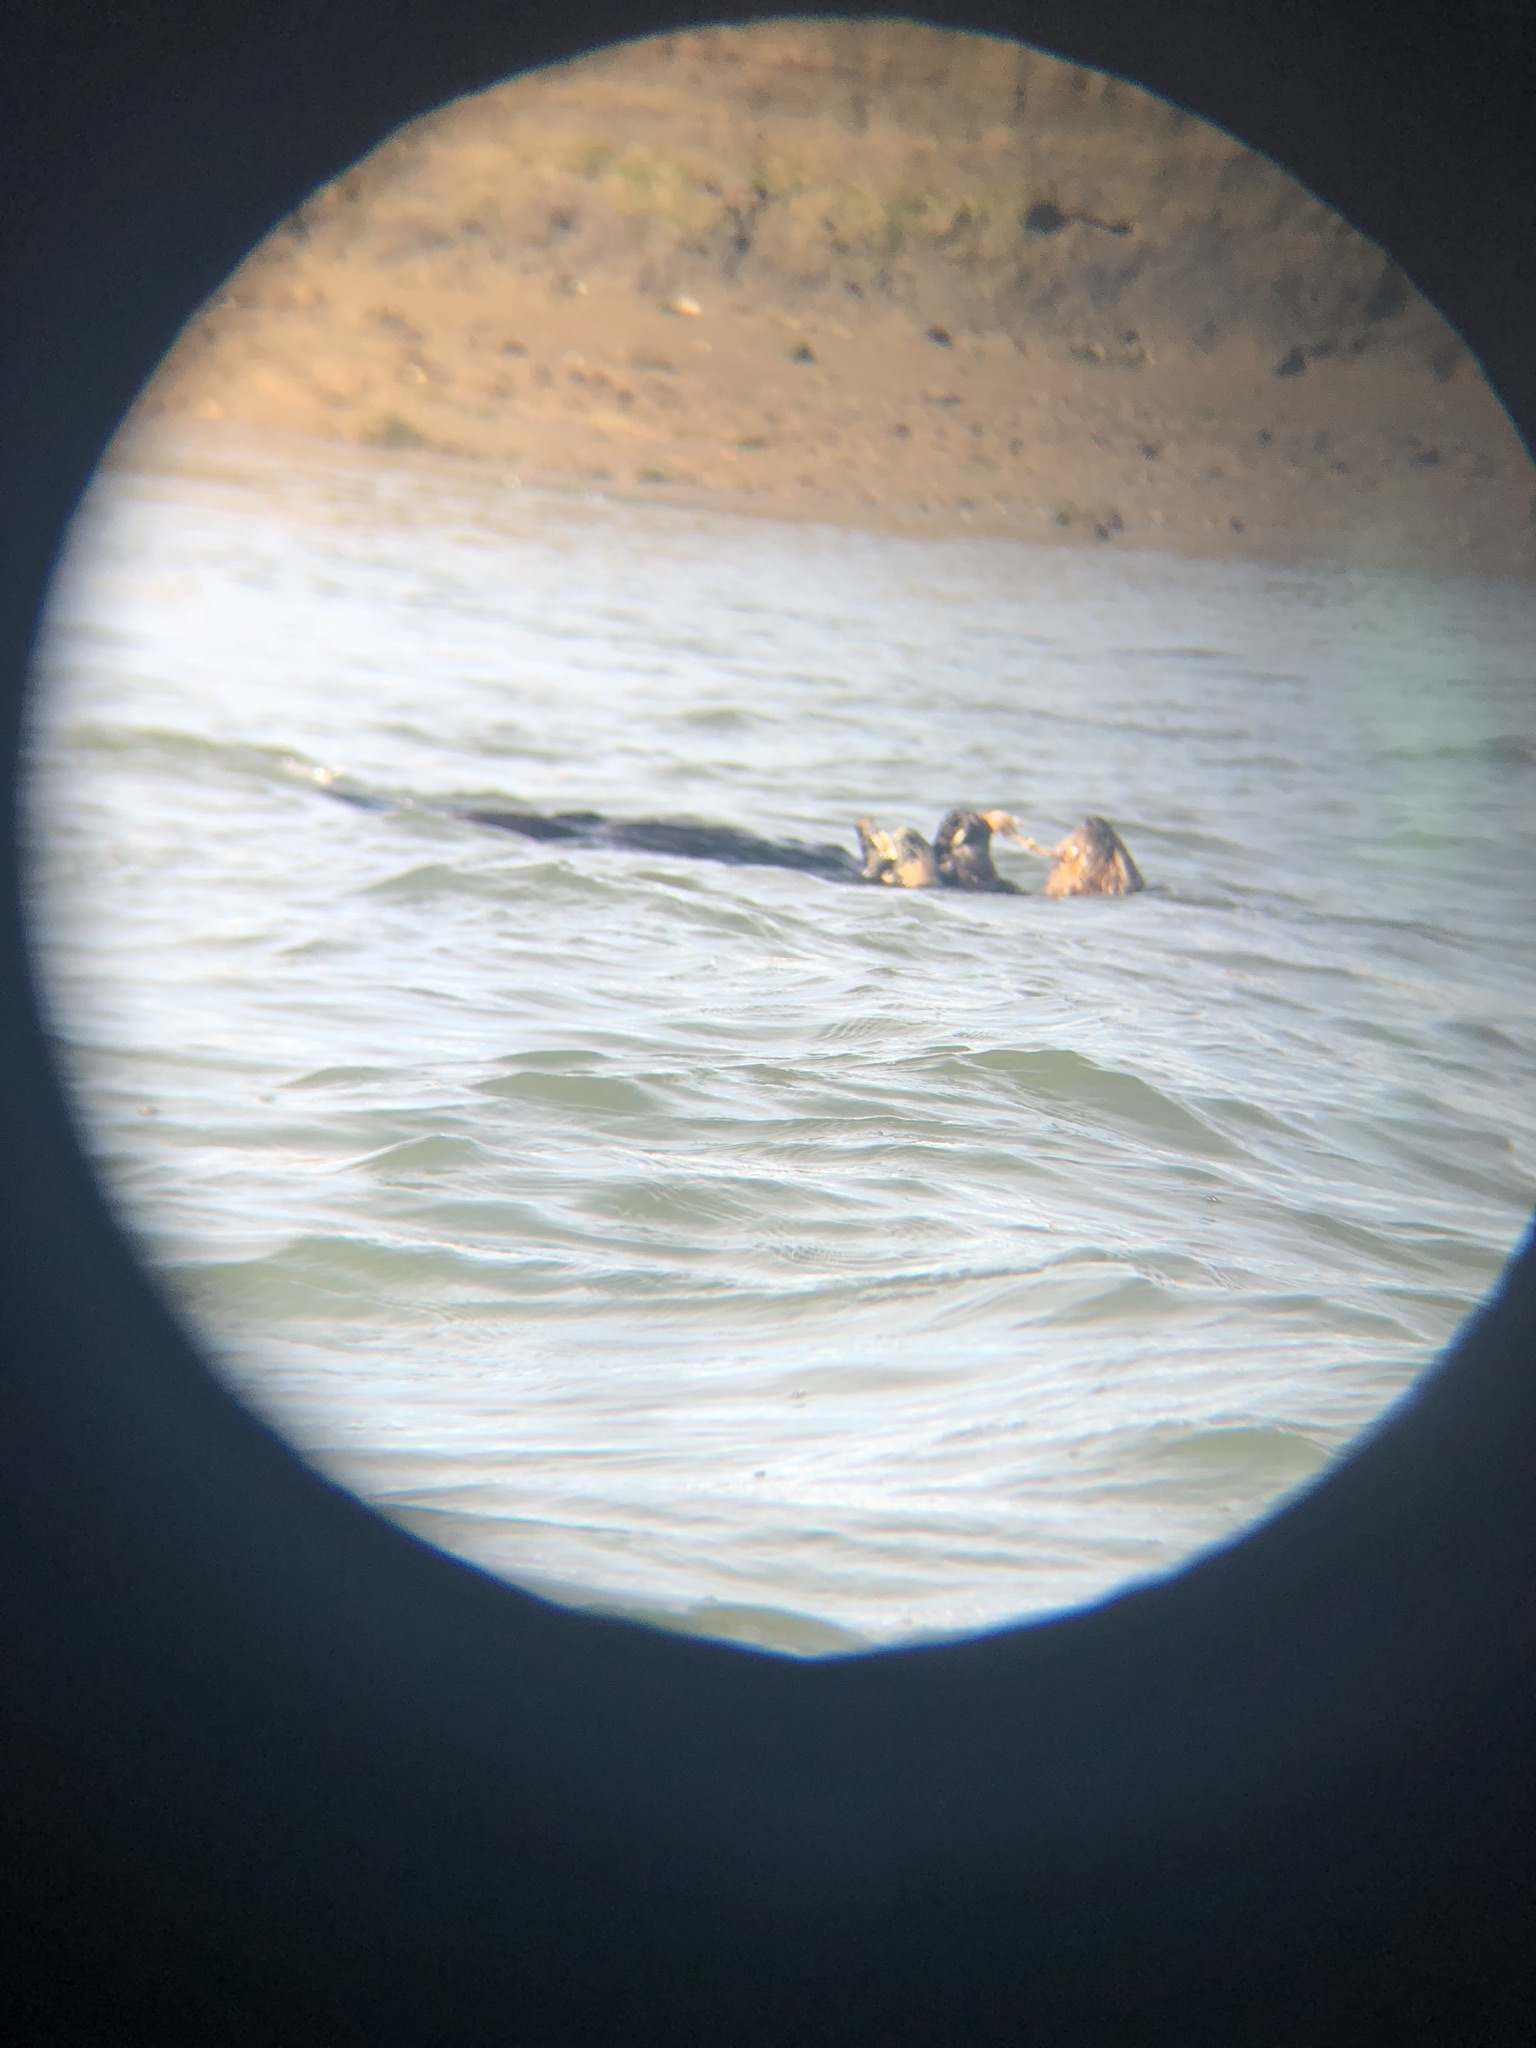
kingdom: Animalia
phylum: Chordata
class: Mammalia
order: Carnivora
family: Mustelidae
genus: Enhydra
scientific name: Enhydra lutris
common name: Sea otter
